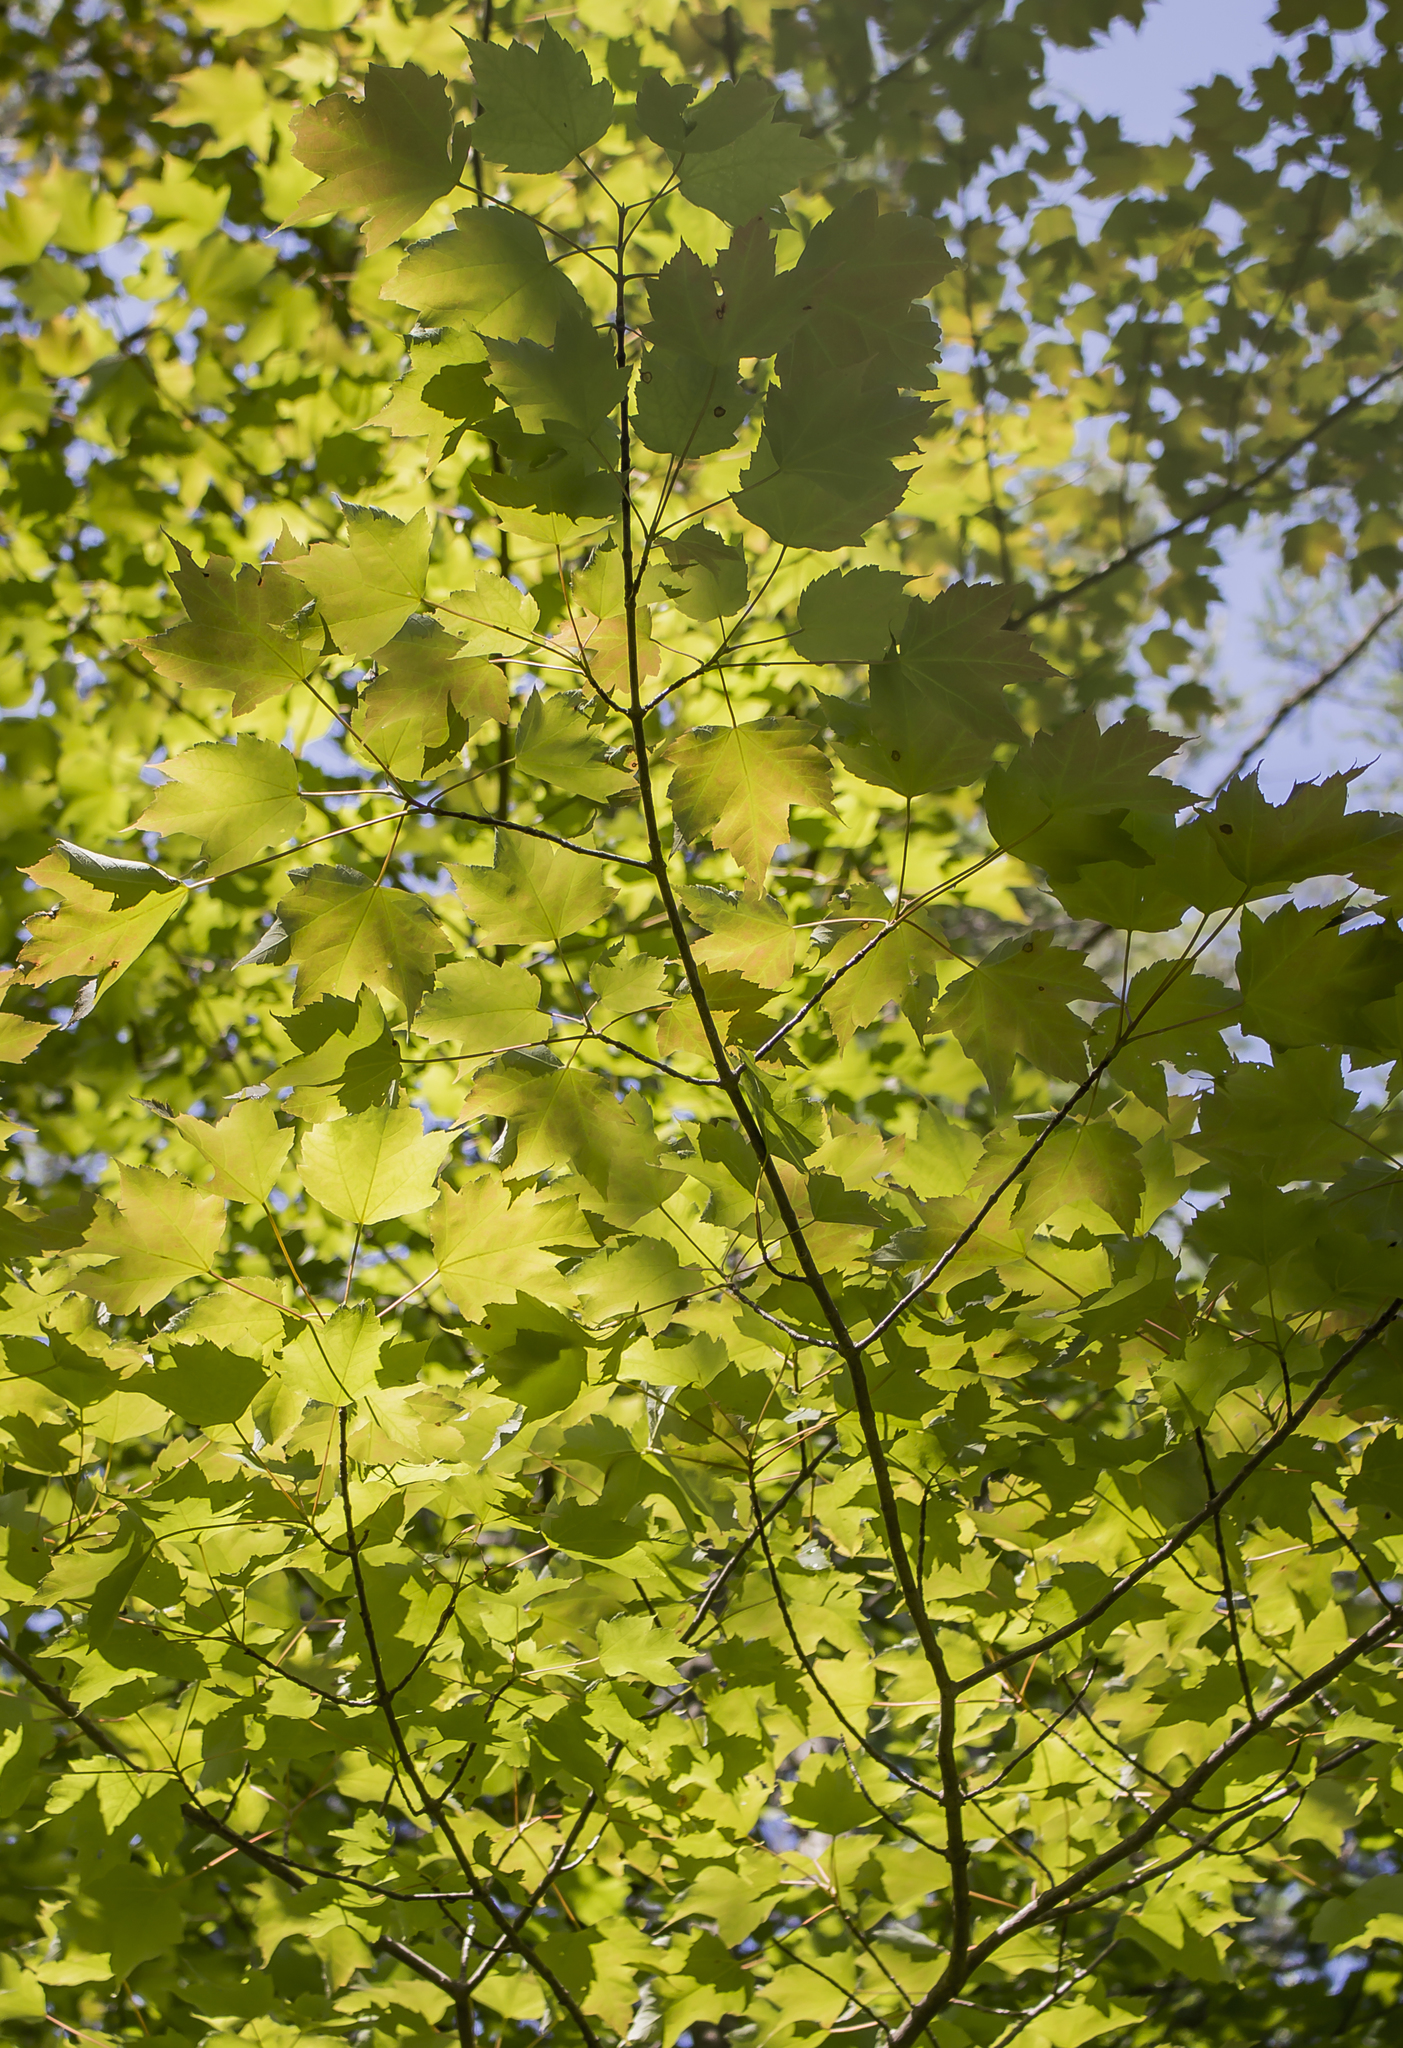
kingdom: Plantae
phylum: Tracheophyta
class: Magnoliopsida
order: Sapindales
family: Sapindaceae
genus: Acer
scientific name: Acer rubrum
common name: Red maple
